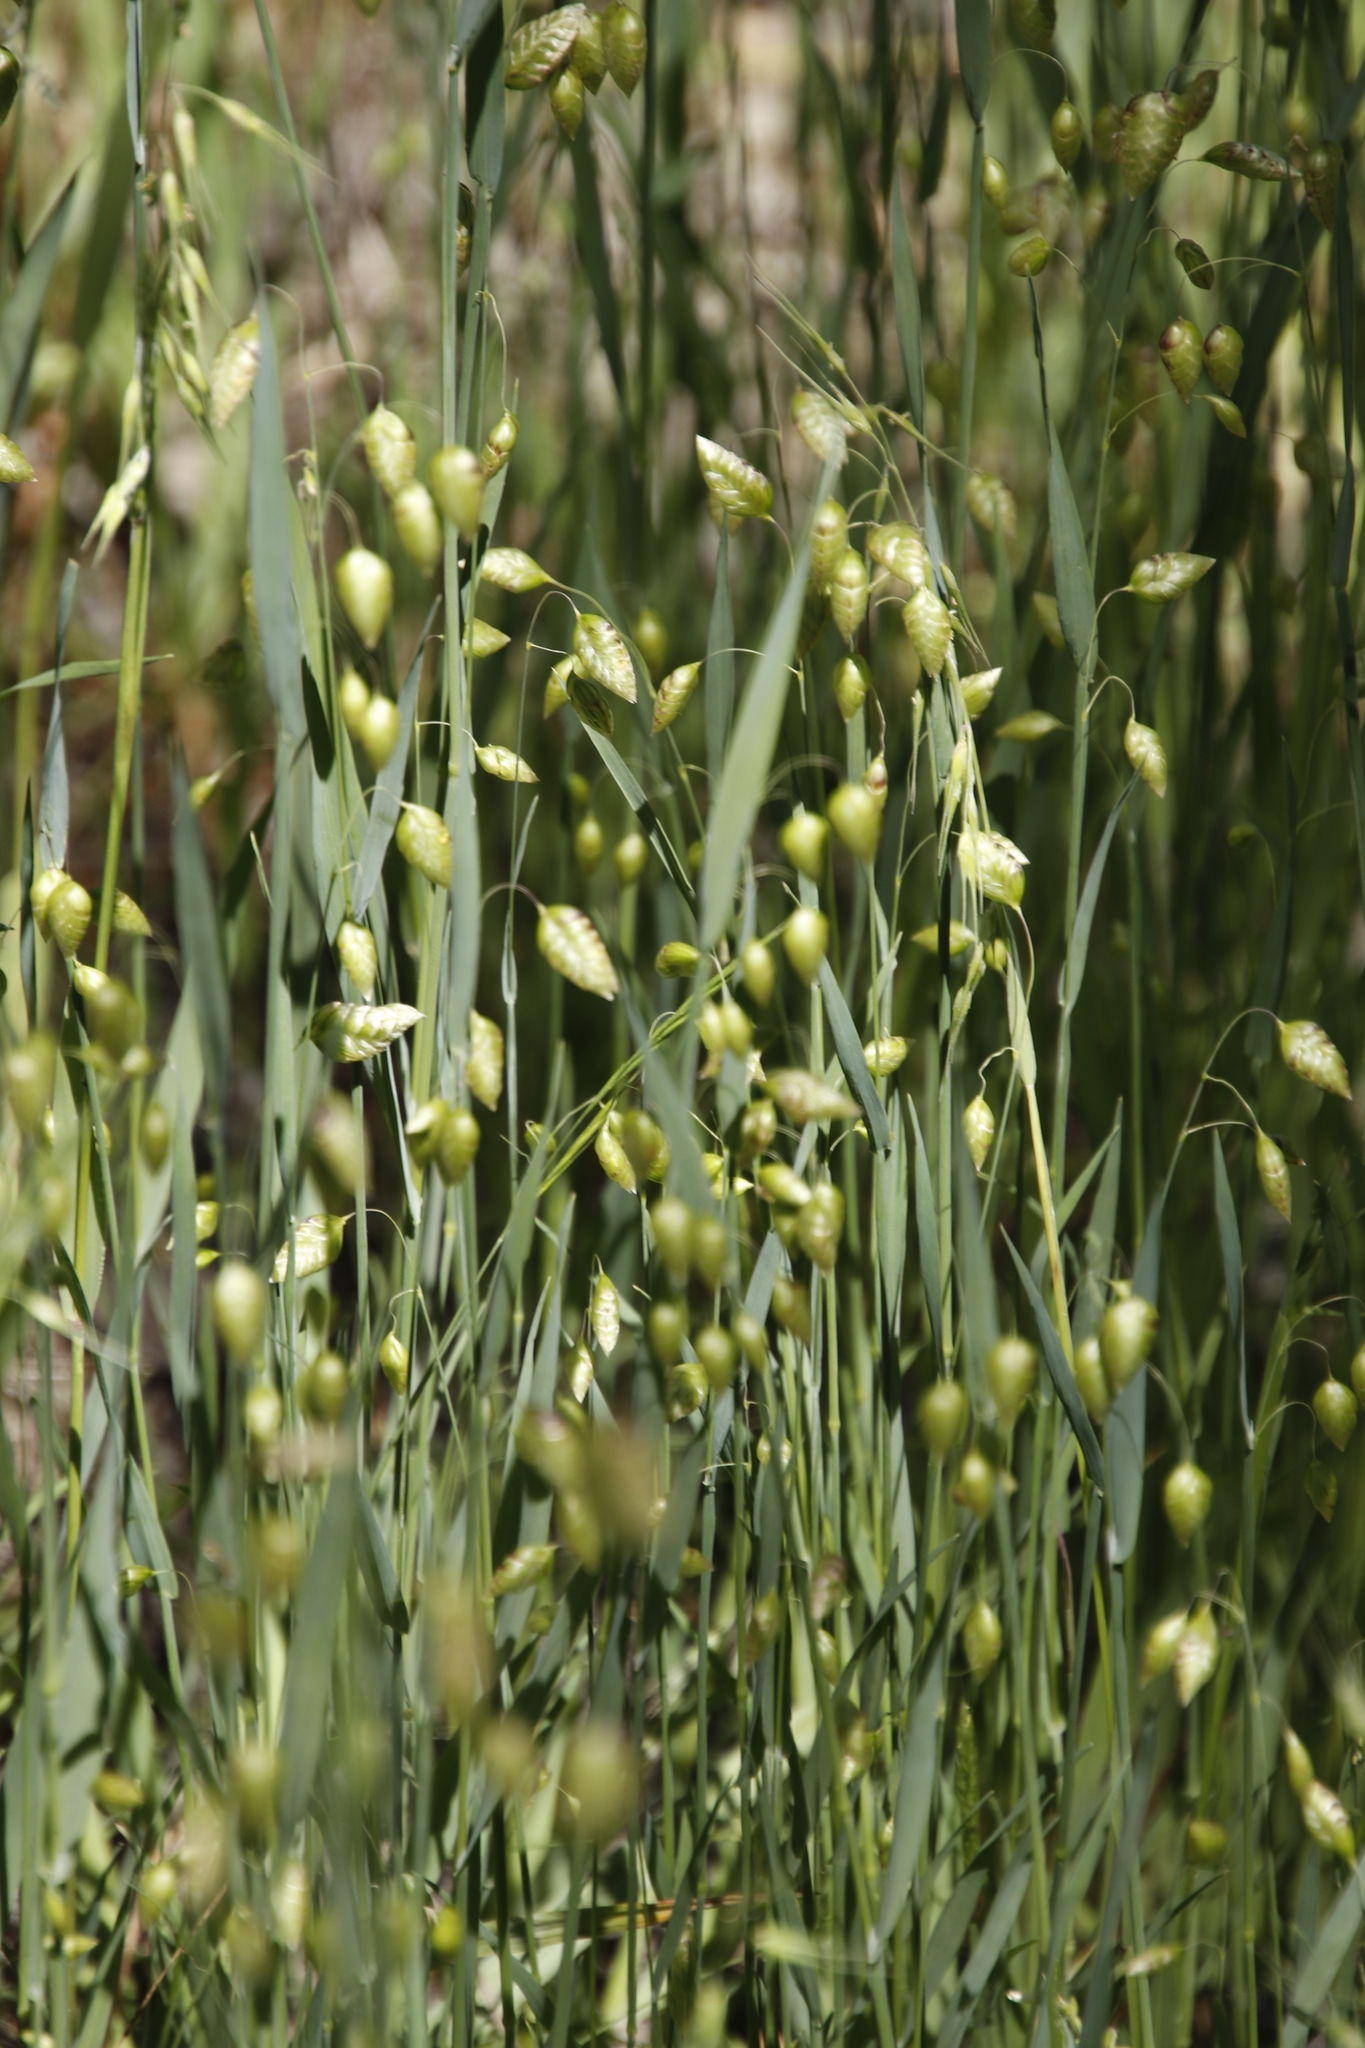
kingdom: Plantae
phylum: Tracheophyta
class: Liliopsida
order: Poales
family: Poaceae
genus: Briza
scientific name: Briza maxima
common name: Big quakinggrass
